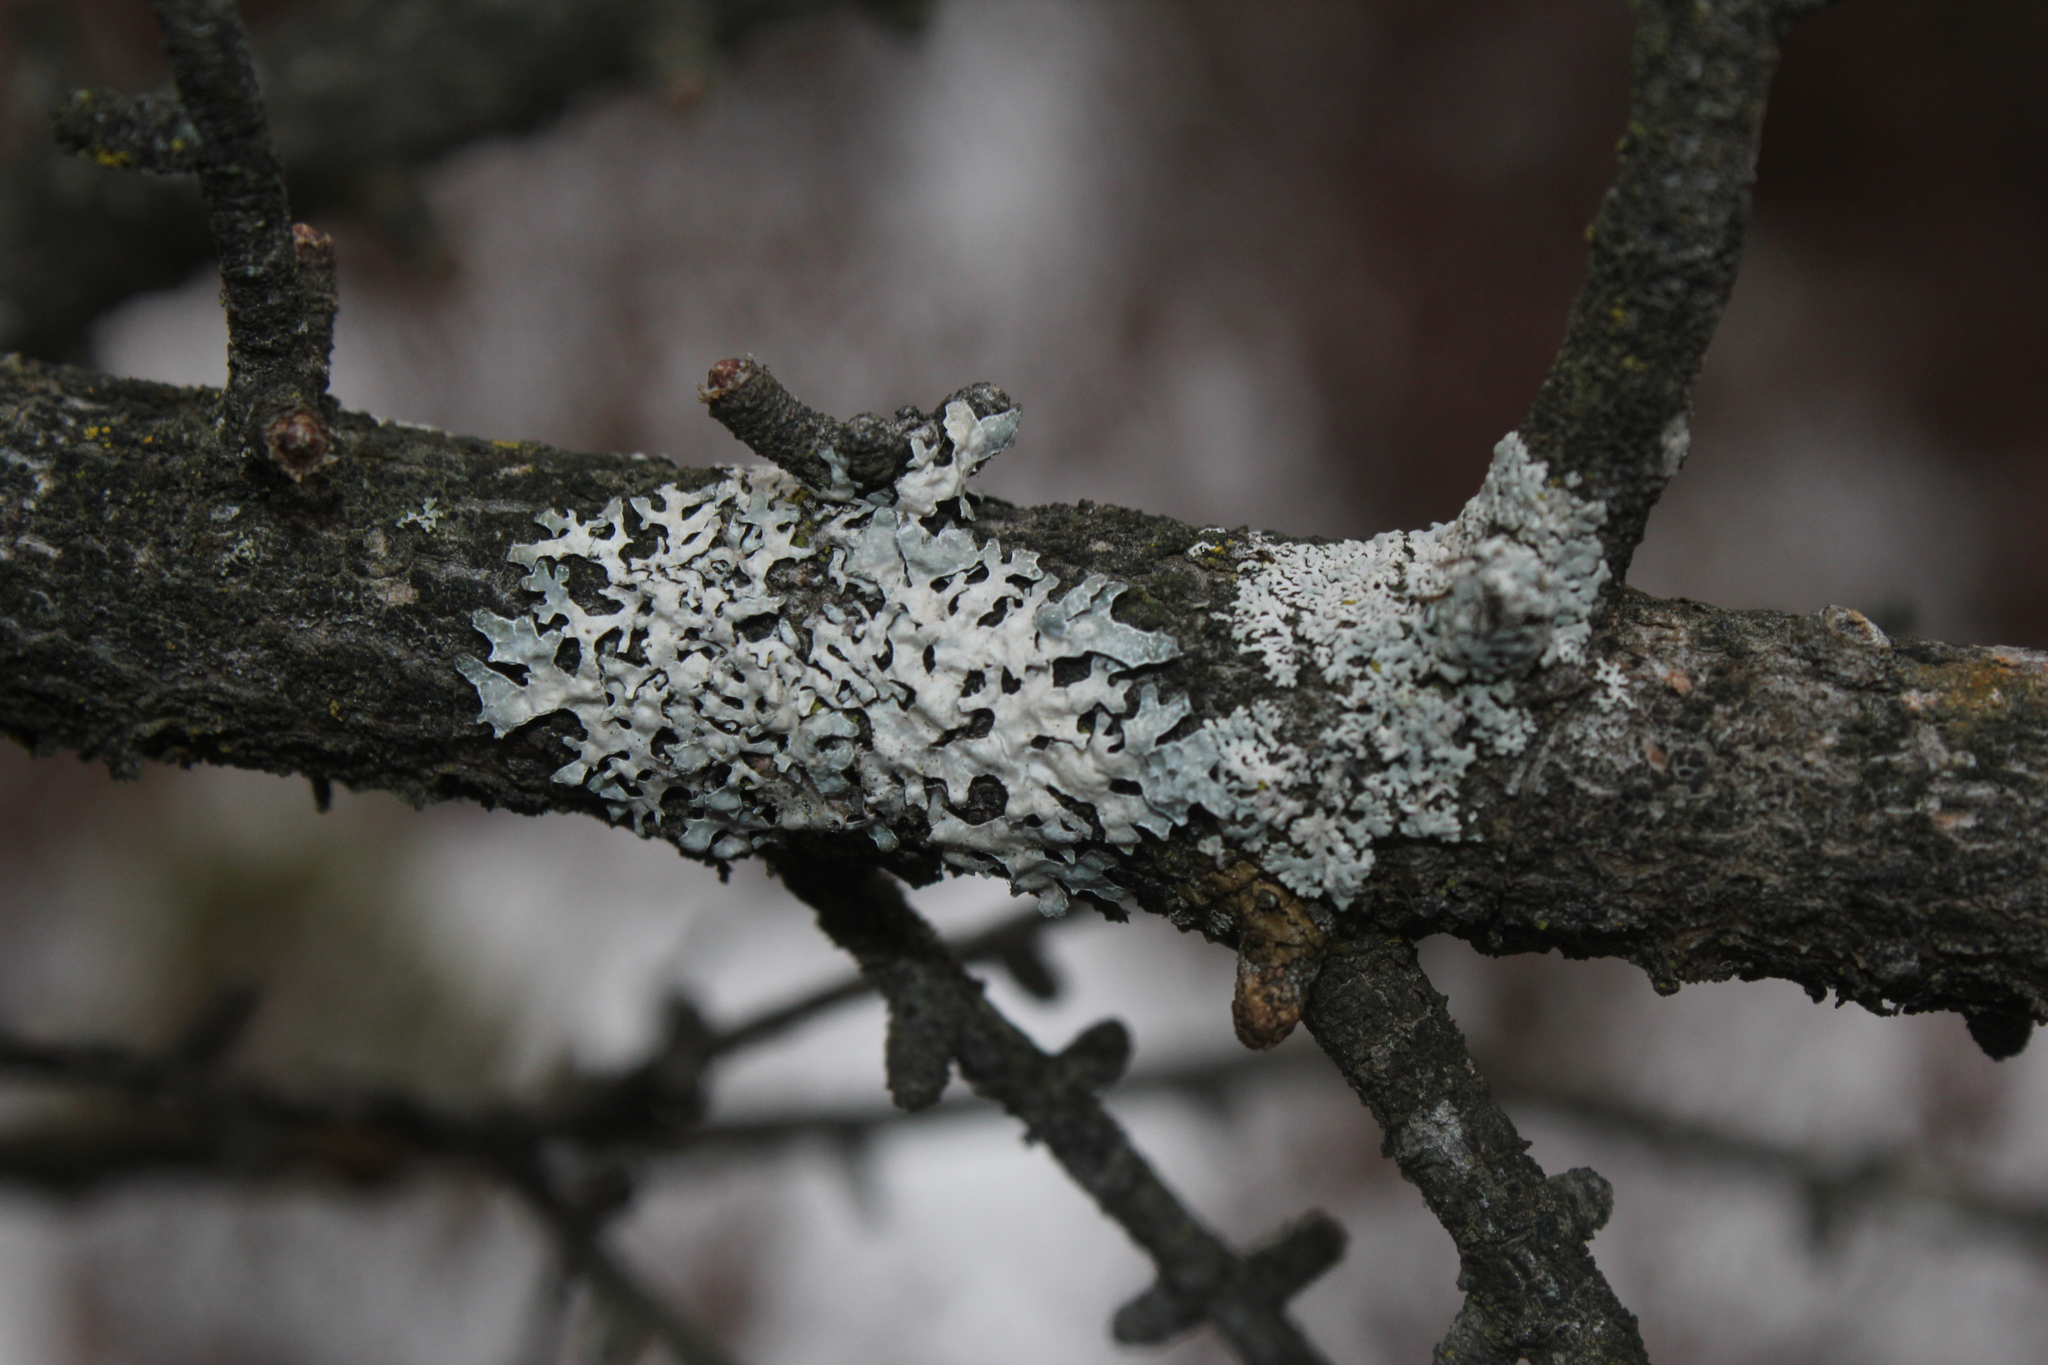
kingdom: Fungi
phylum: Ascomycota
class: Lecanoromycetes
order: Lecanorales
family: Parmeliaceae
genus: Parmelia
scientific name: Parmelia sulcata
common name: Netted shield lichen
